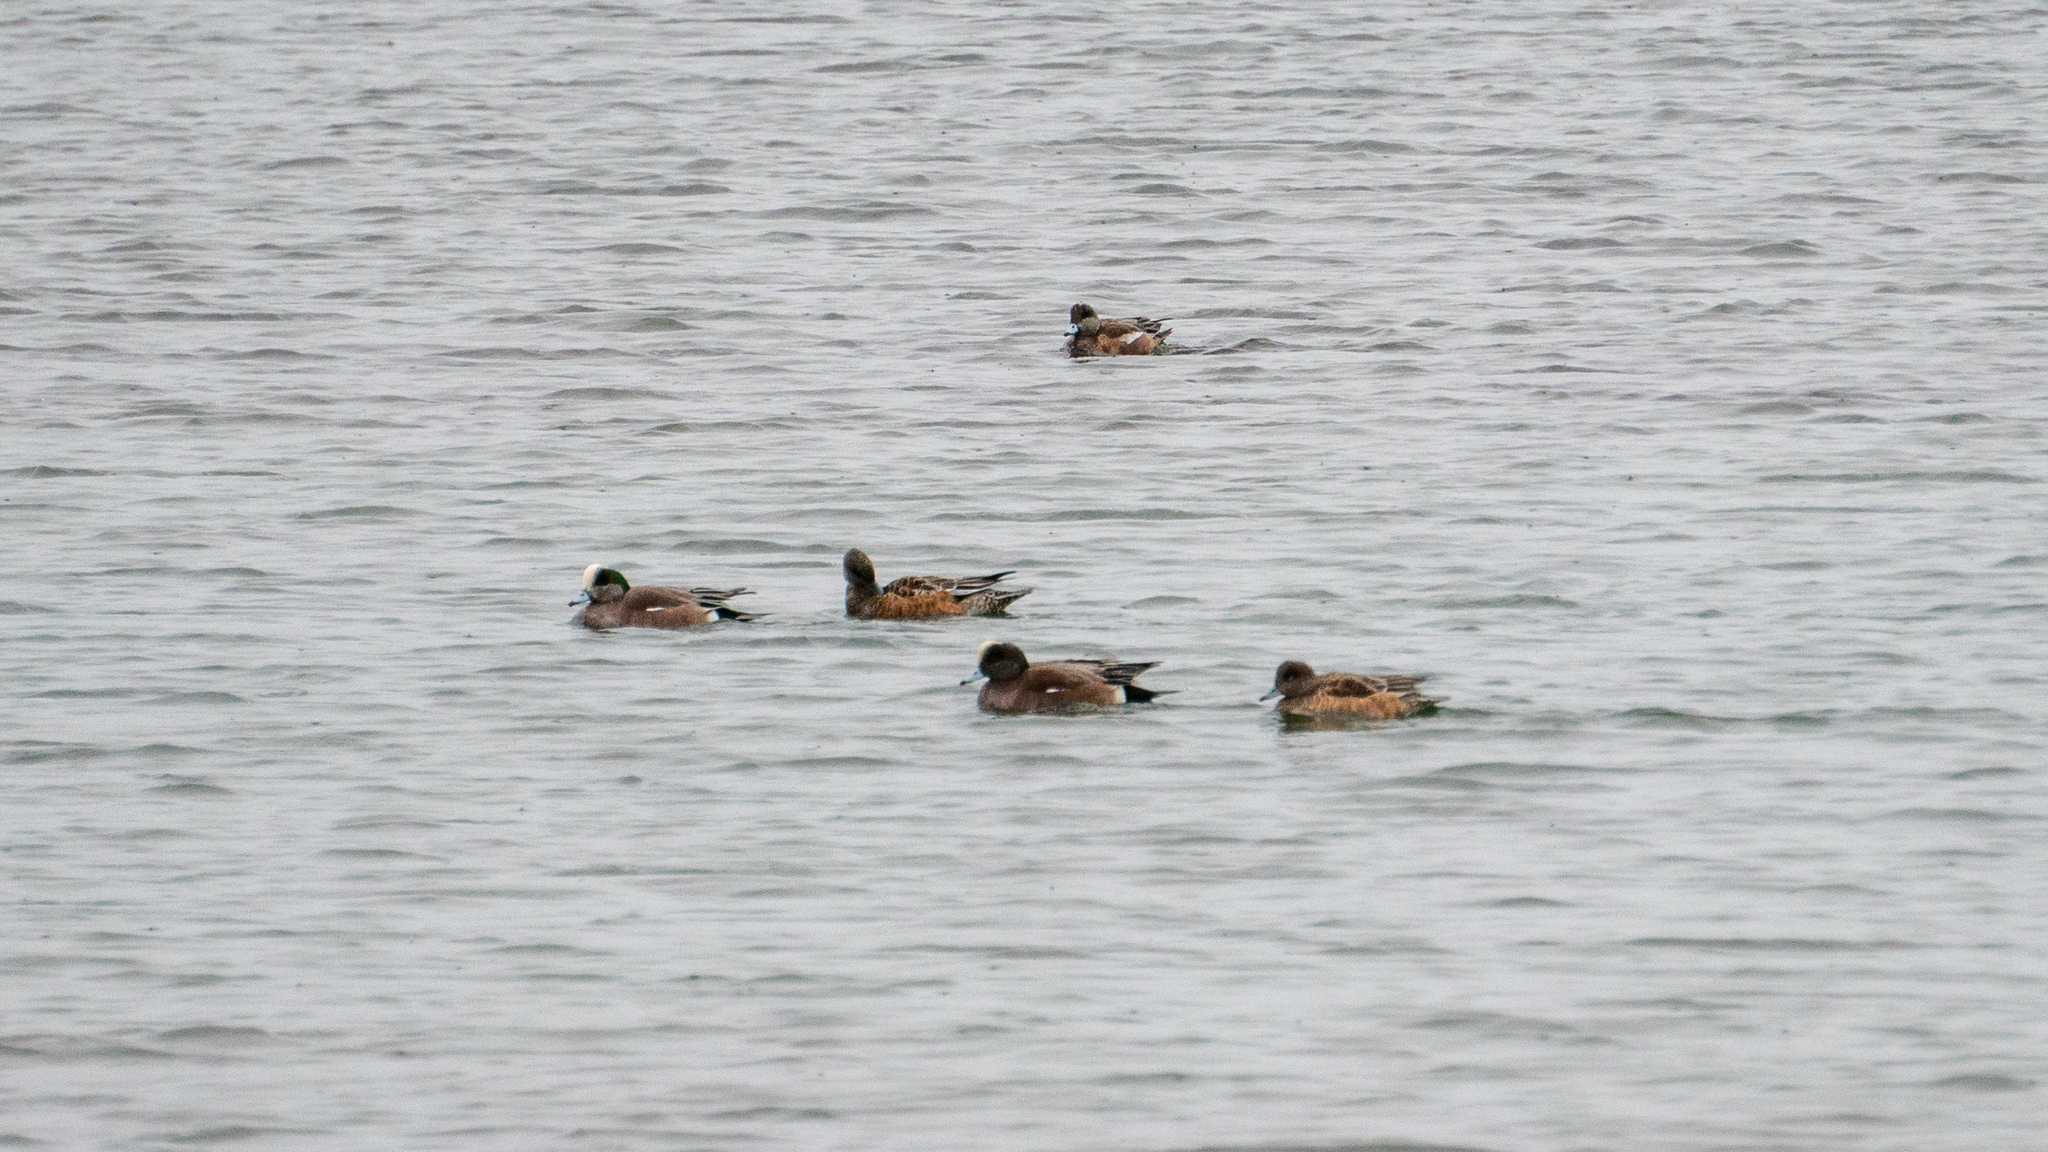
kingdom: Animalia
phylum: Chordata
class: Aves
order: Anseriformes
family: Anatidae
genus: Mareca
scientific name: Mareca americana
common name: American wigeon
